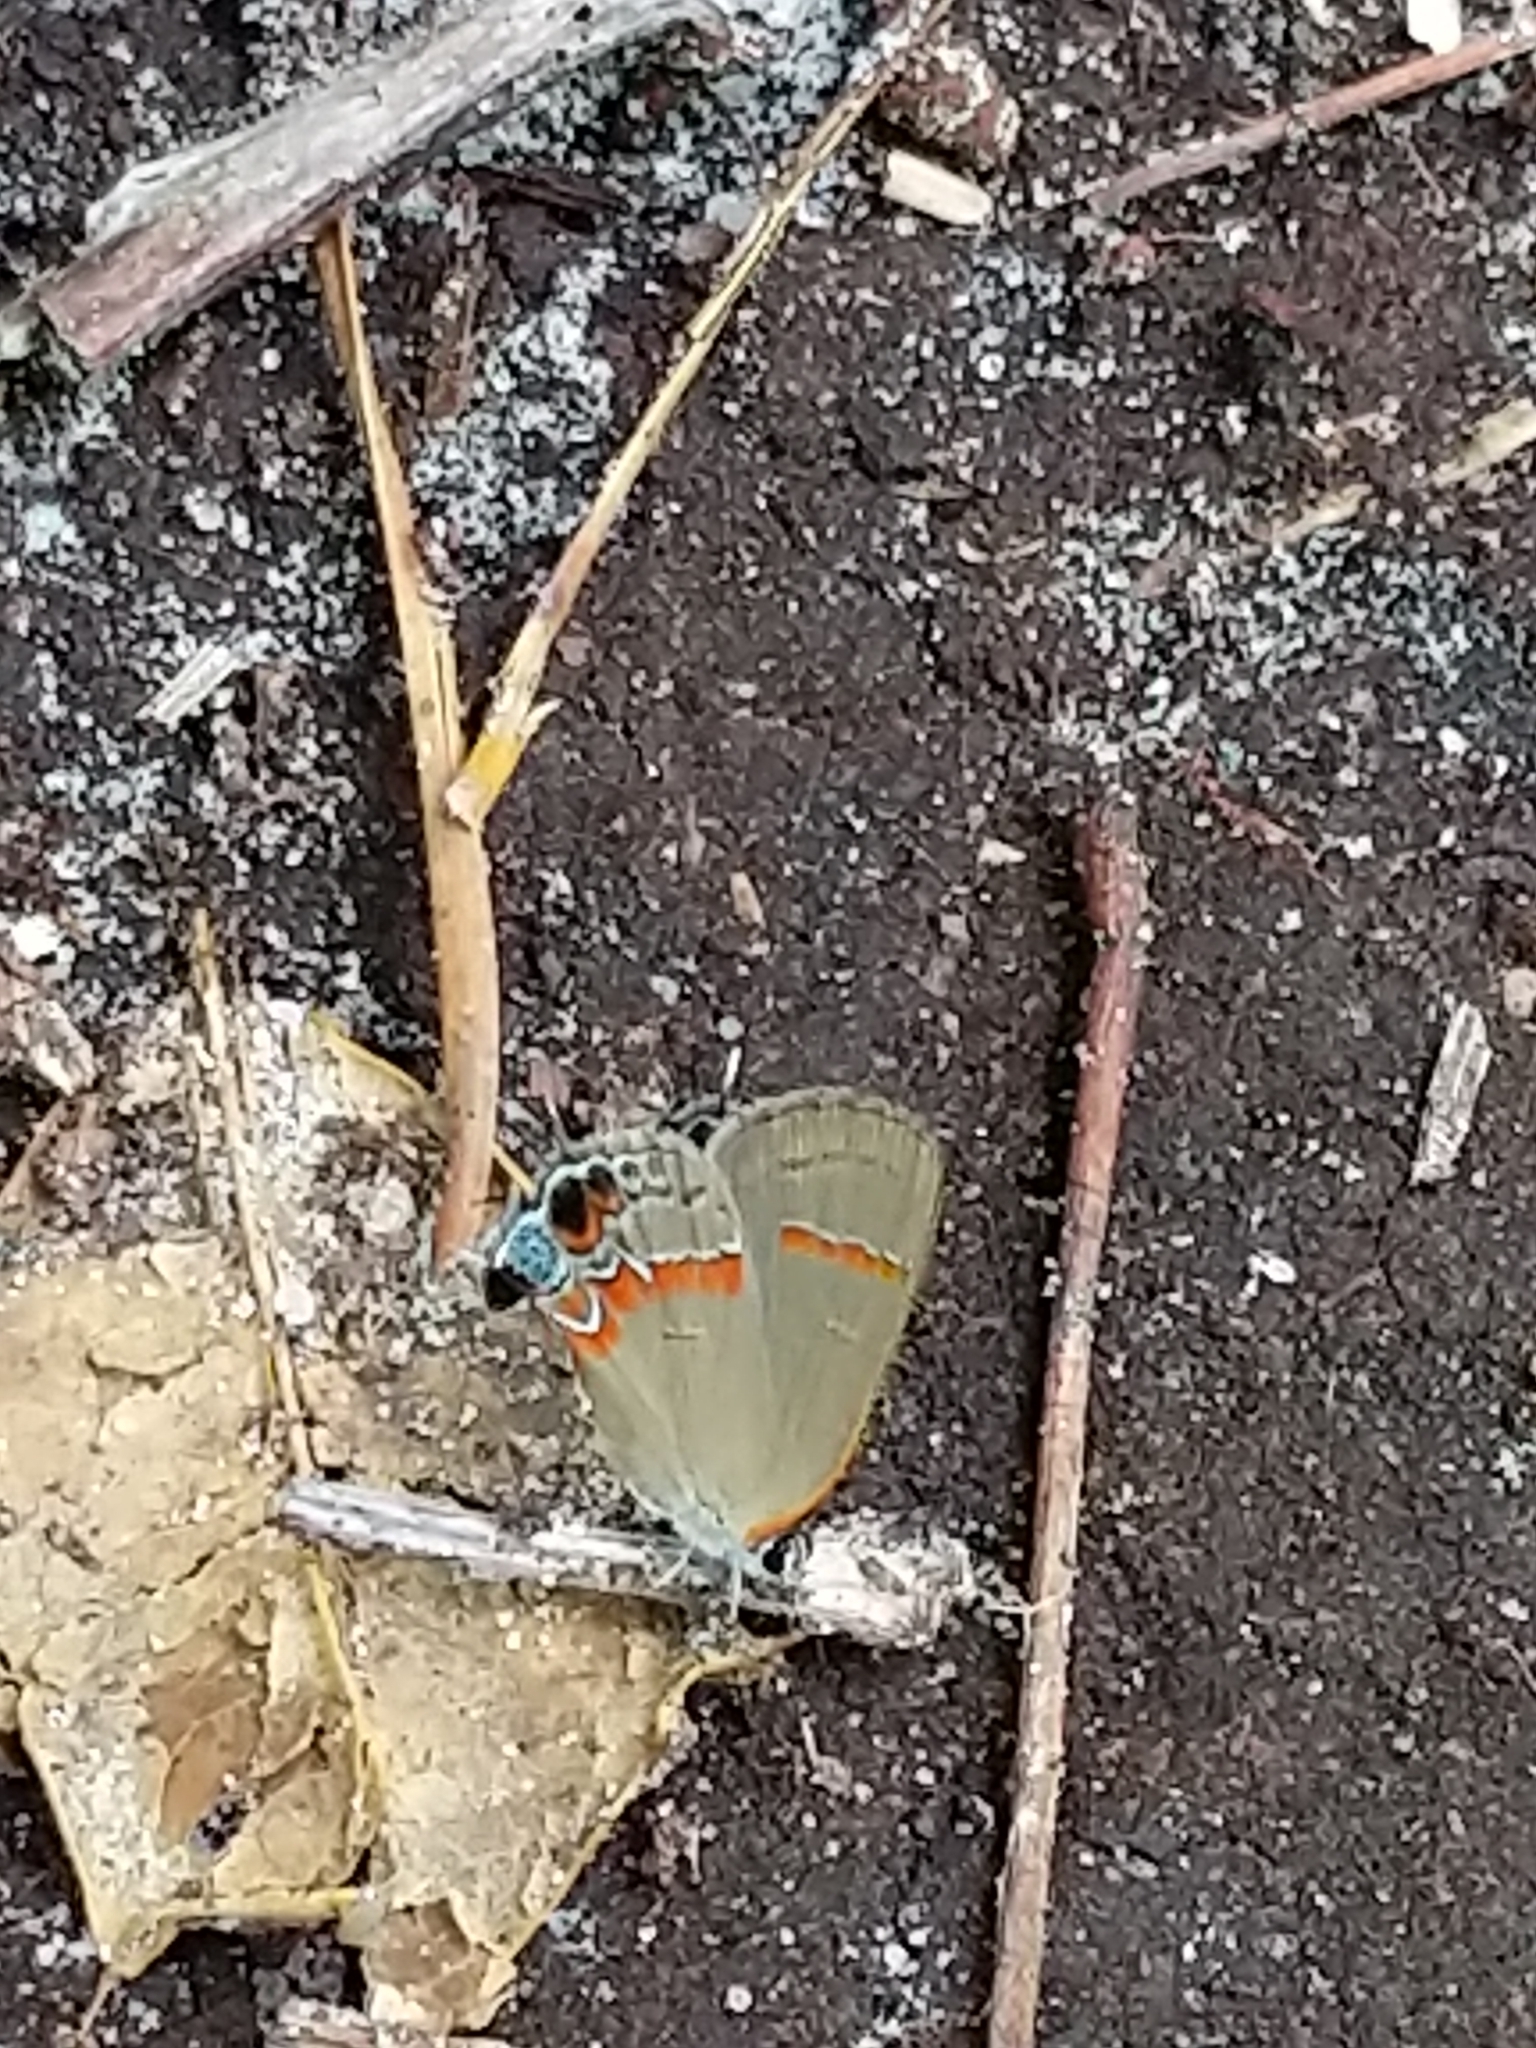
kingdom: Animalia
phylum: Arthropoda
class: Insecta
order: Lepidoptera
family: Lycaenidae
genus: Calycopis
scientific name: Calycopis cecrops
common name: Red-banded hairstreak
